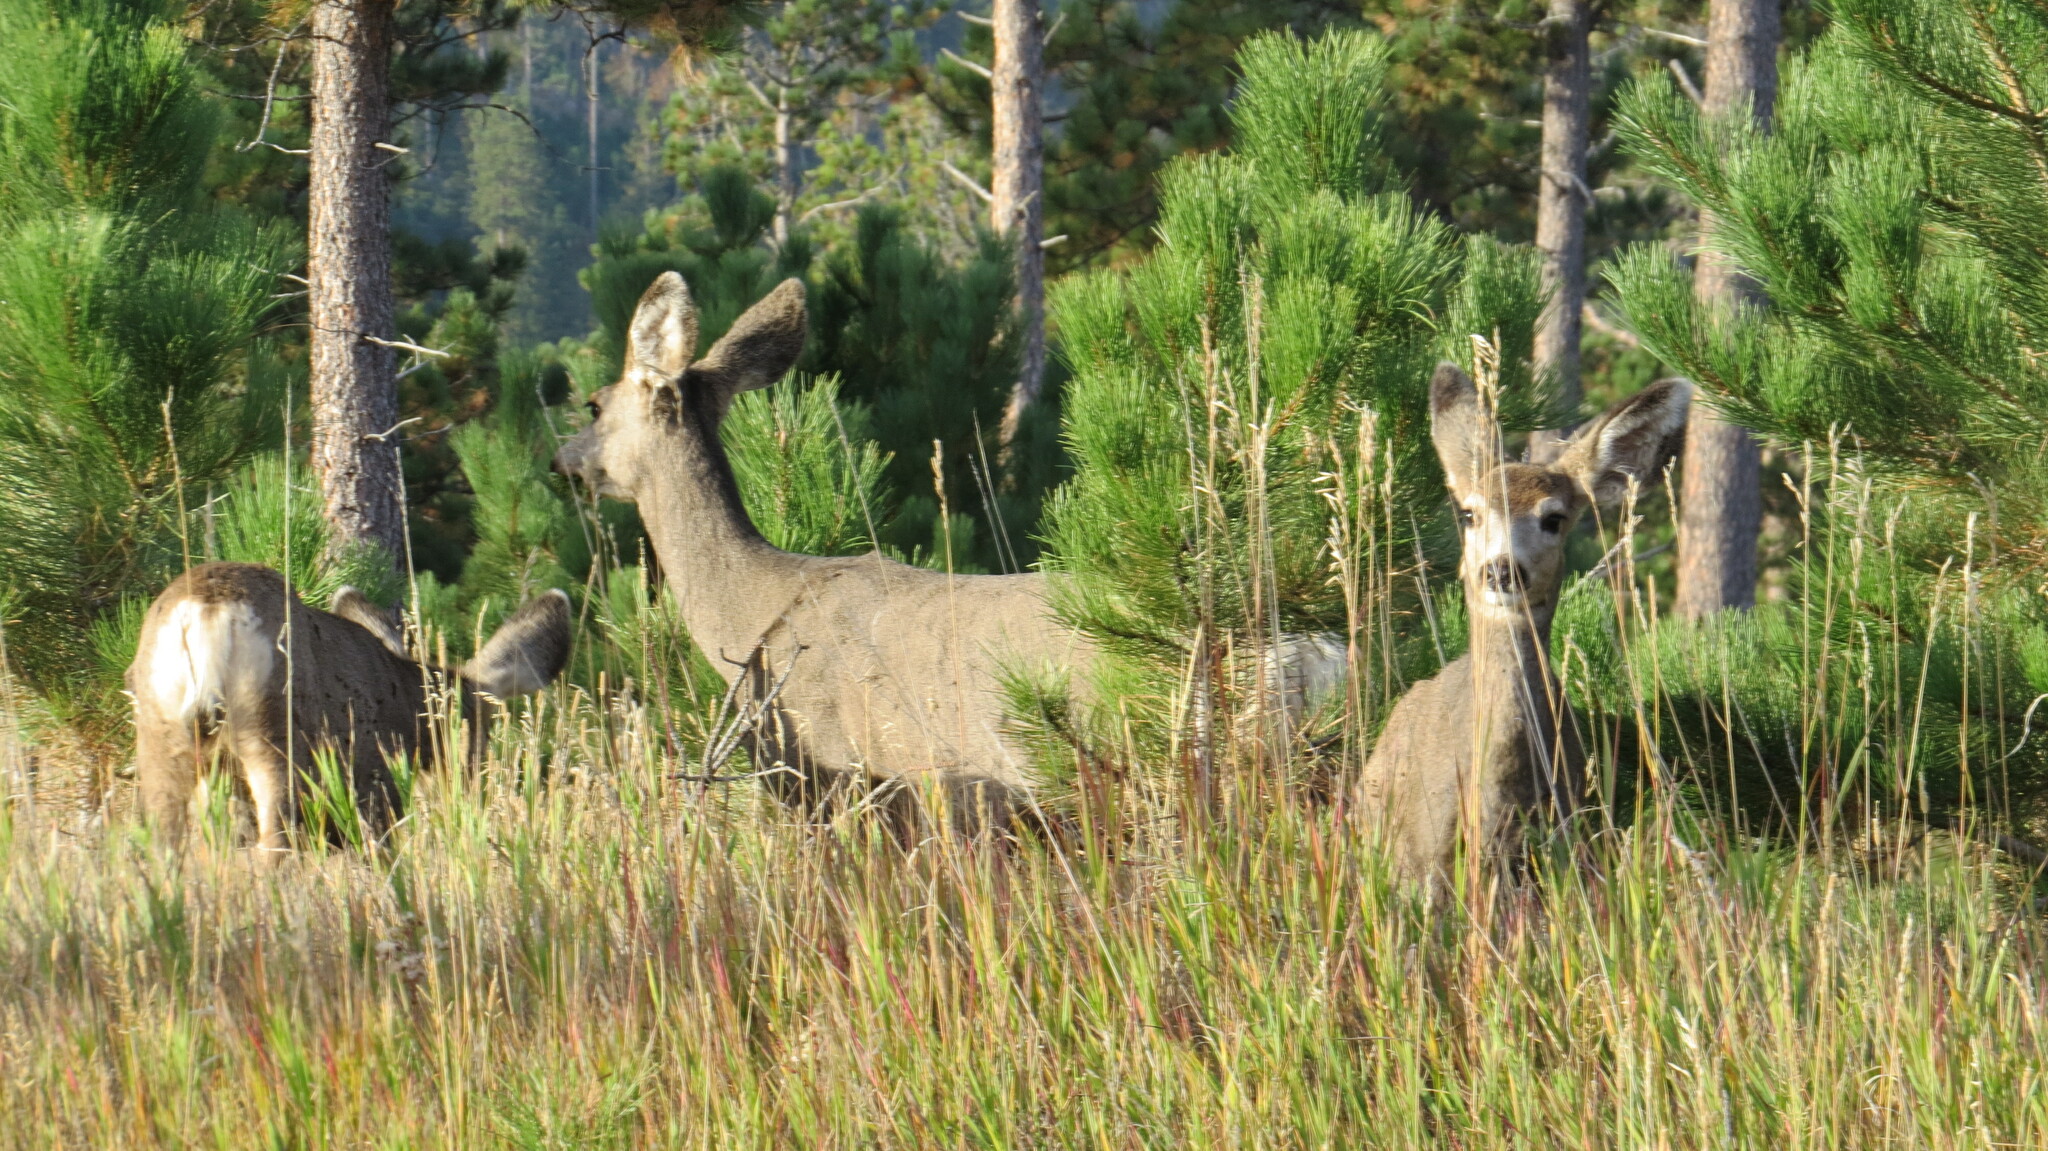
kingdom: Animalia
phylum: Chordata
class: Mammalia
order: Artiodactyla
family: Cervidae
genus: Odocoileus
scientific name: Odocoileus hemionus
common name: Mule deer
